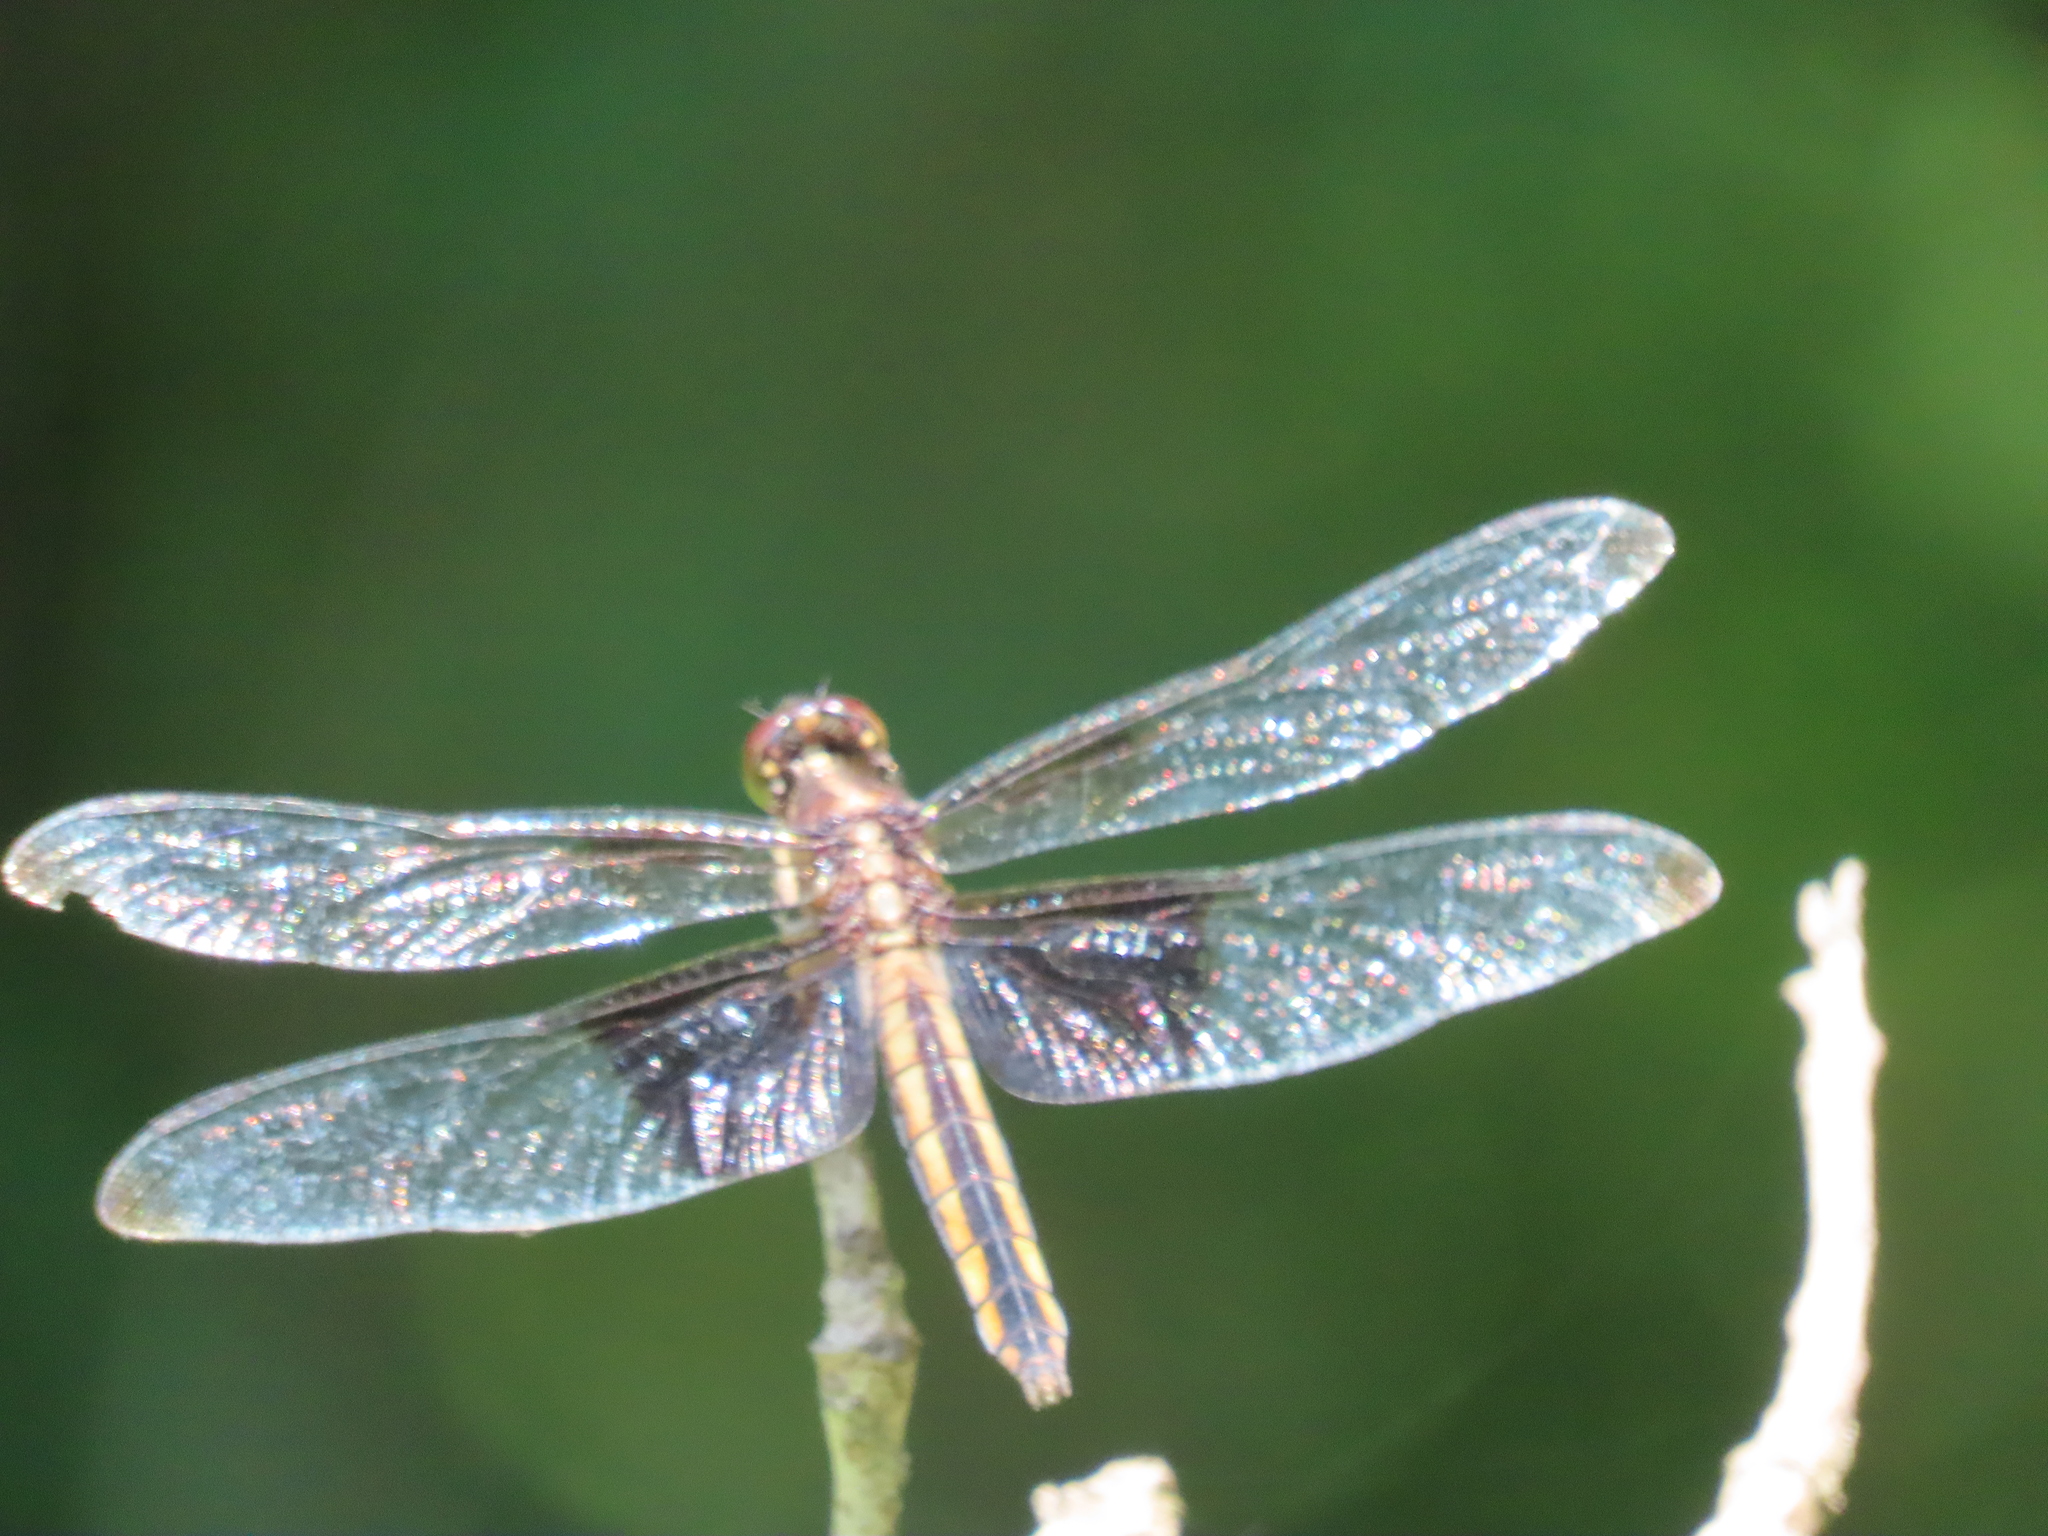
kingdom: Animalia
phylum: Arthropoda
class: Insecta
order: Odonata
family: Libellulidae
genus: Libellula
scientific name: Libellula luctuosa
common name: Widow skimmer
